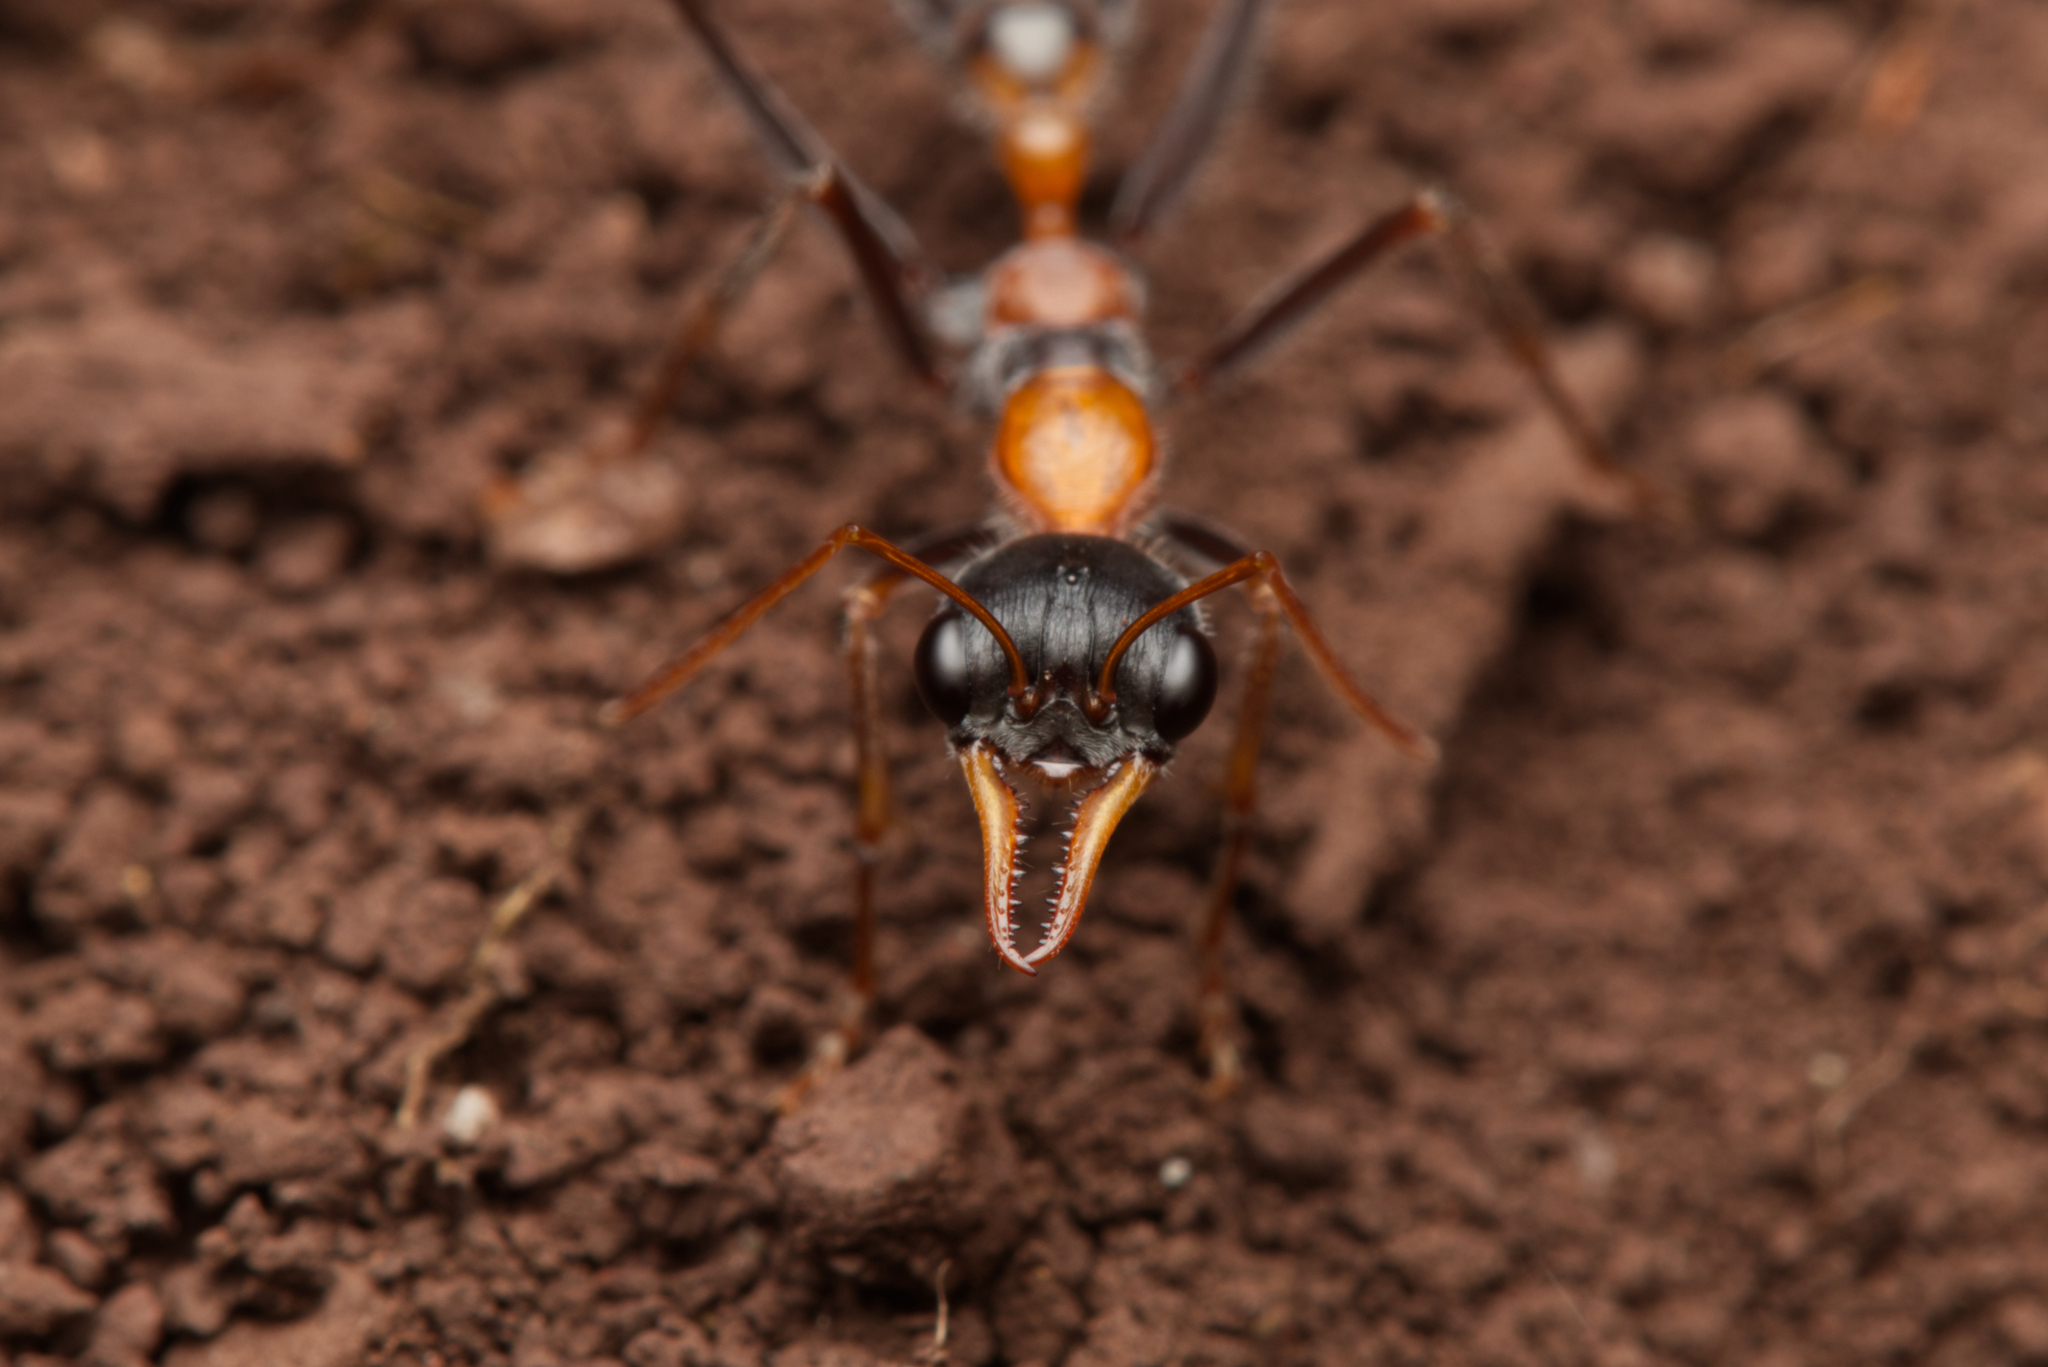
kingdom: Animalia
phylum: Arthropoda
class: Insecta
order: Hymenoptera
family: Formicidae
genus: Myrmecia
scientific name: Myrmecia nigrocincta
